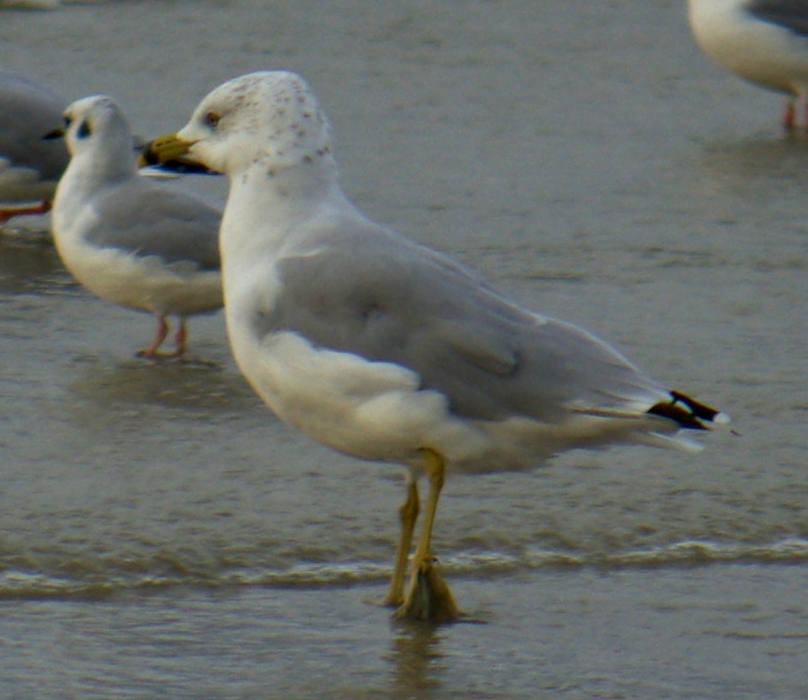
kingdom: Animalia
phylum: Chordata
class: Aves
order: Charadriiformes
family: Laridae
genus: Larus
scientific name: Larus delawarensis
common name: Ring-billed gull
